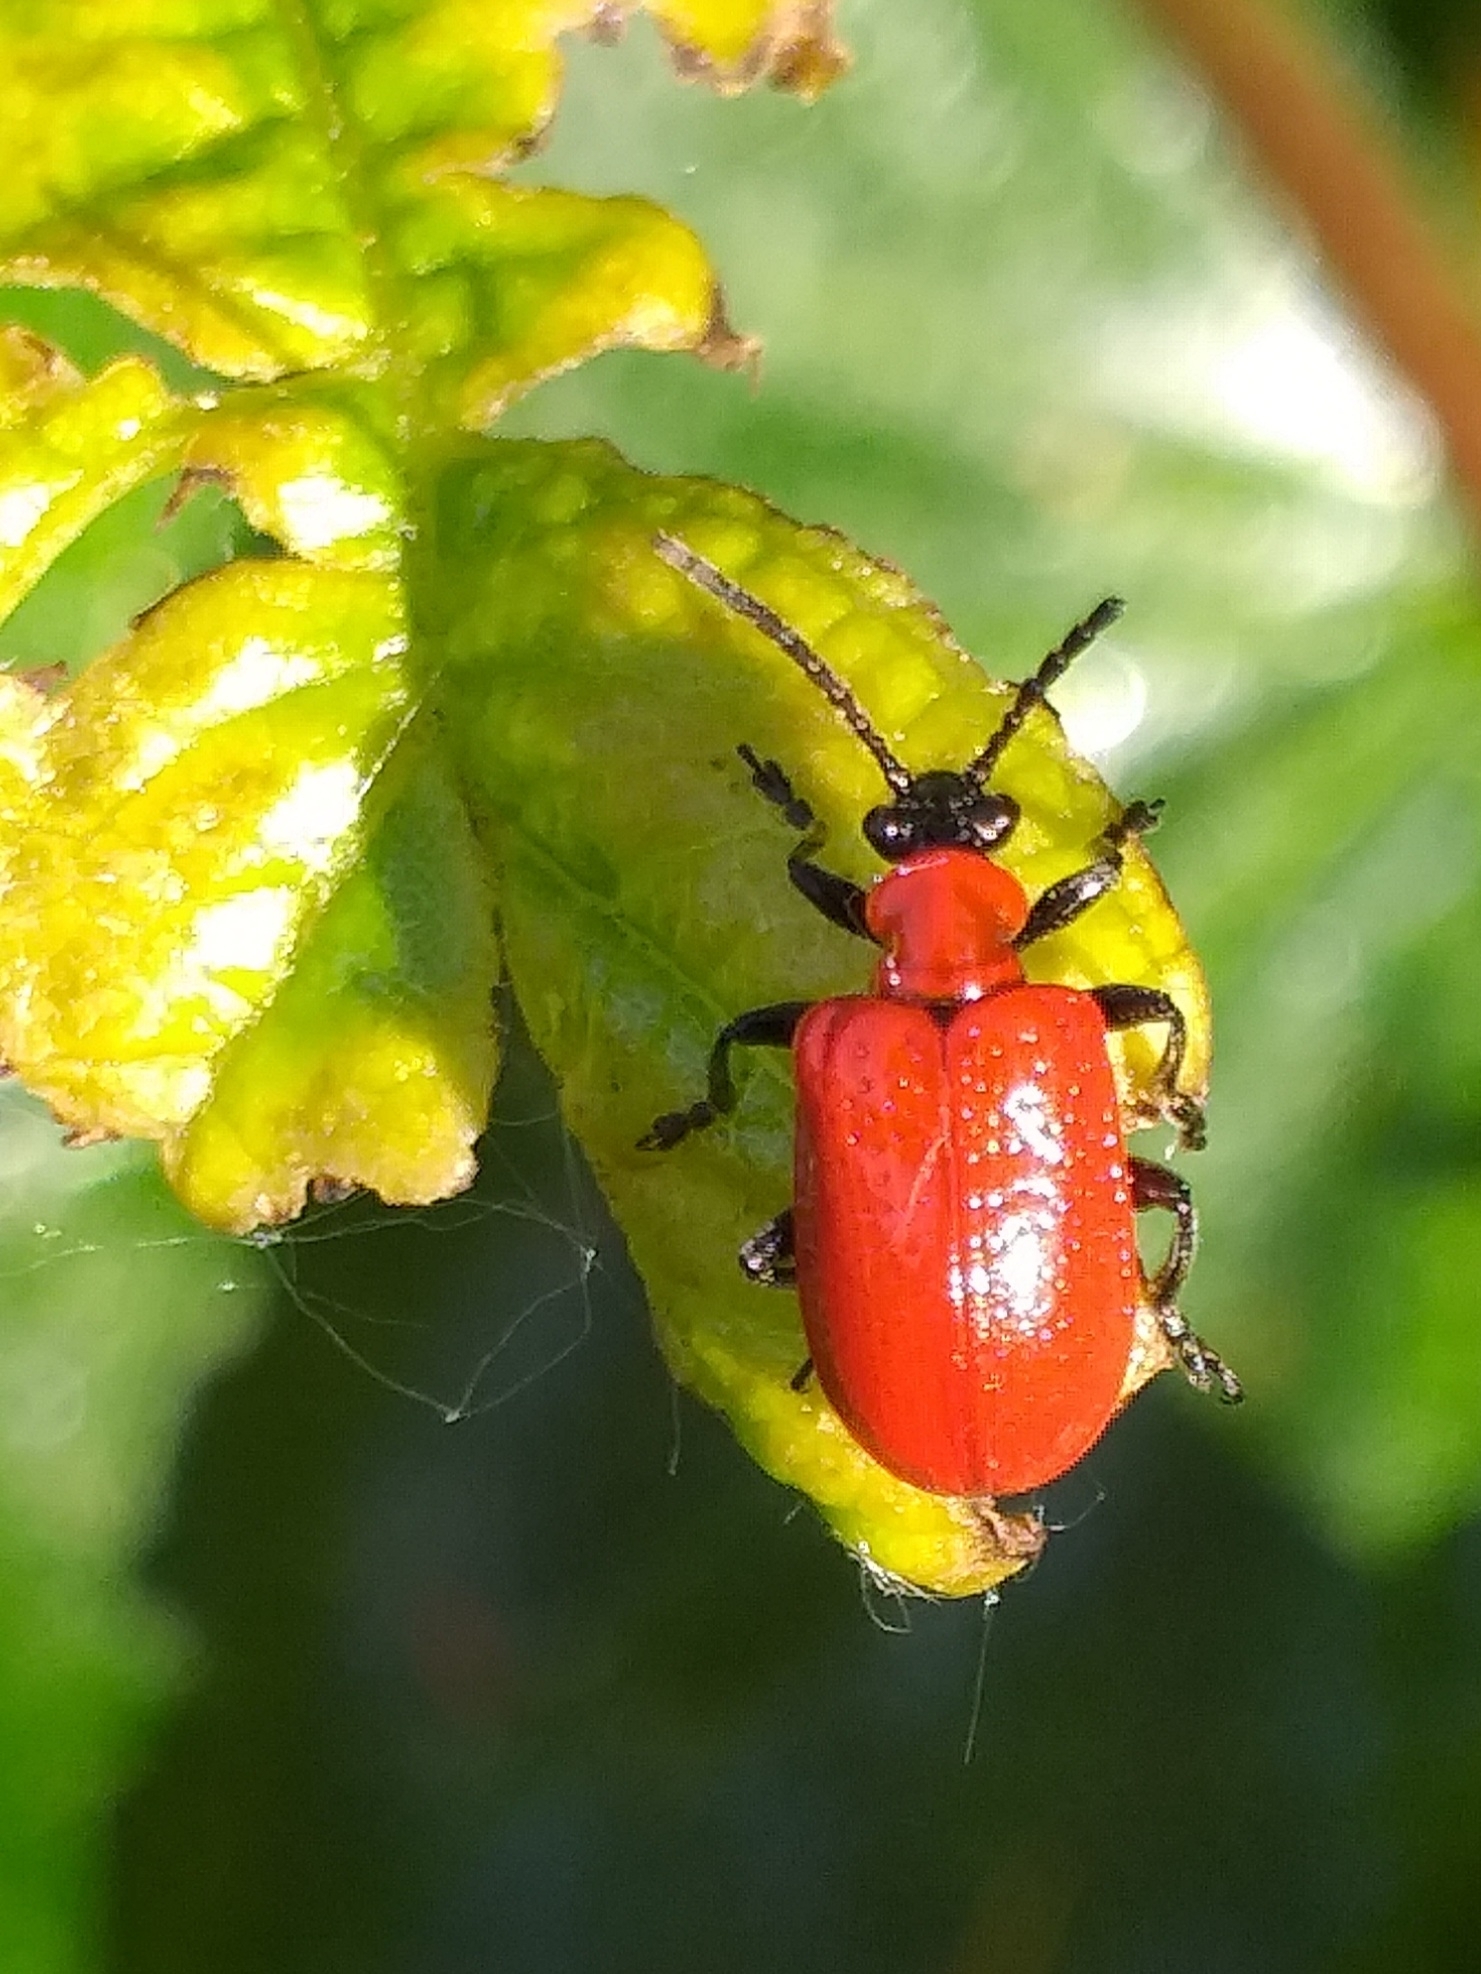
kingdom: Animalia
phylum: Arthropoda
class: Insecta
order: Coleoptera
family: Chrysomelidae
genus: Lilioceris
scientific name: Lilioceris lilii
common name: Lily beetle
